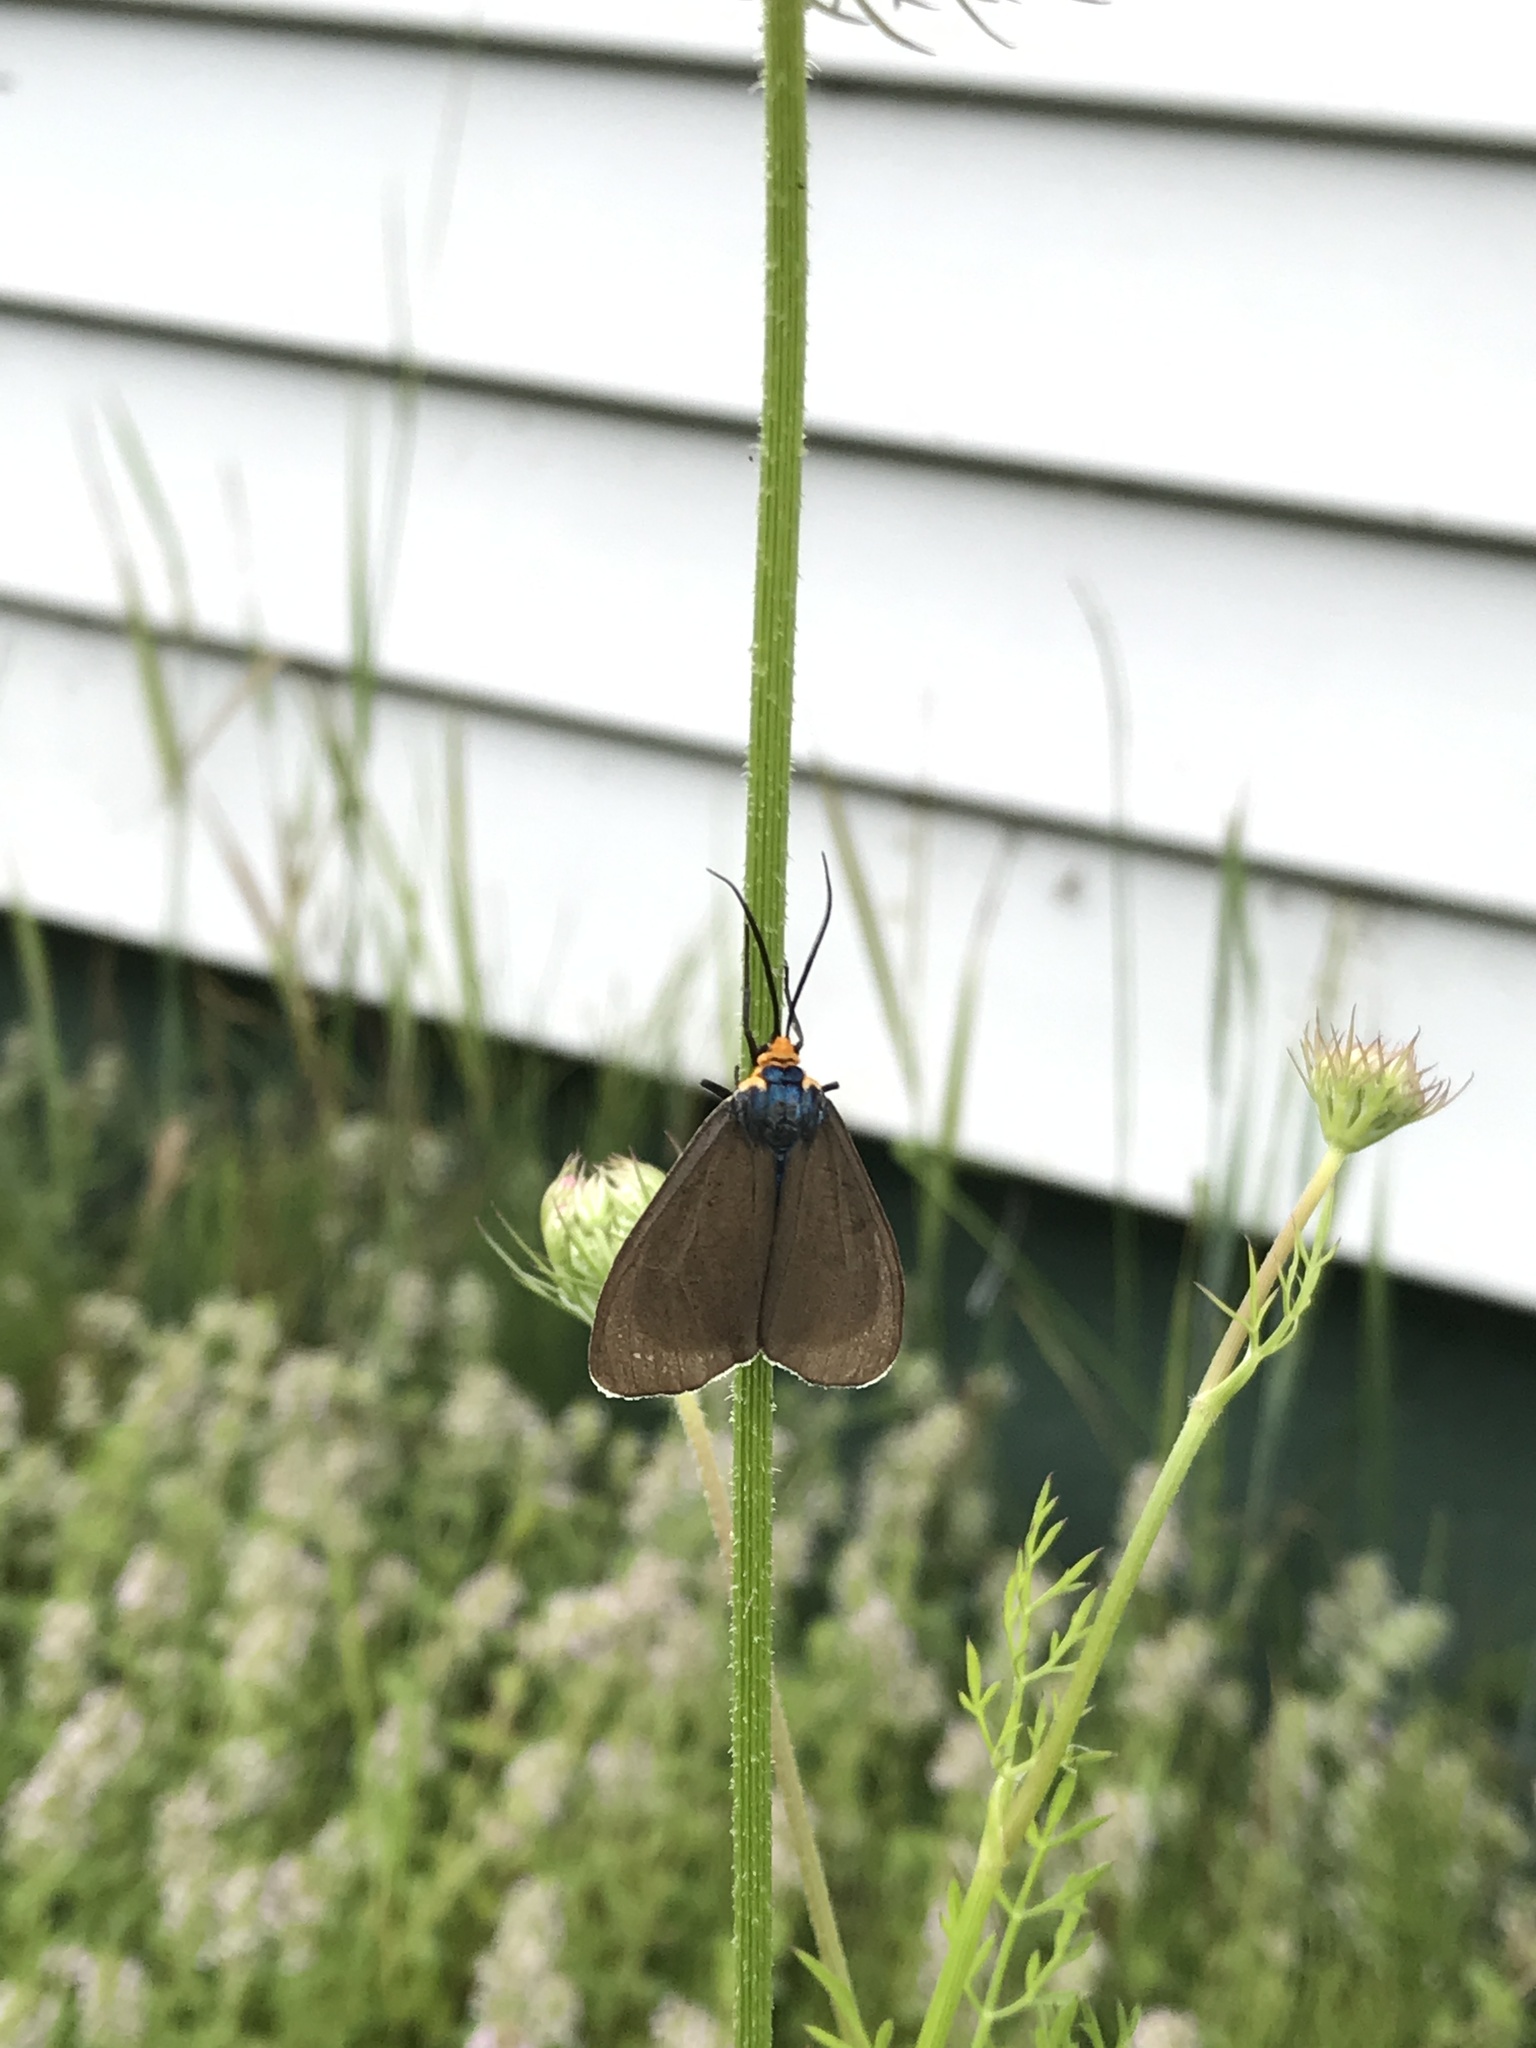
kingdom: Animalia
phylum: Arthropoda
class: Insecta
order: Lepidoptera
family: Erebidae
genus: Ctenucha
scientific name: Ctenucha virginica
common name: Virginia ctenucha moth
